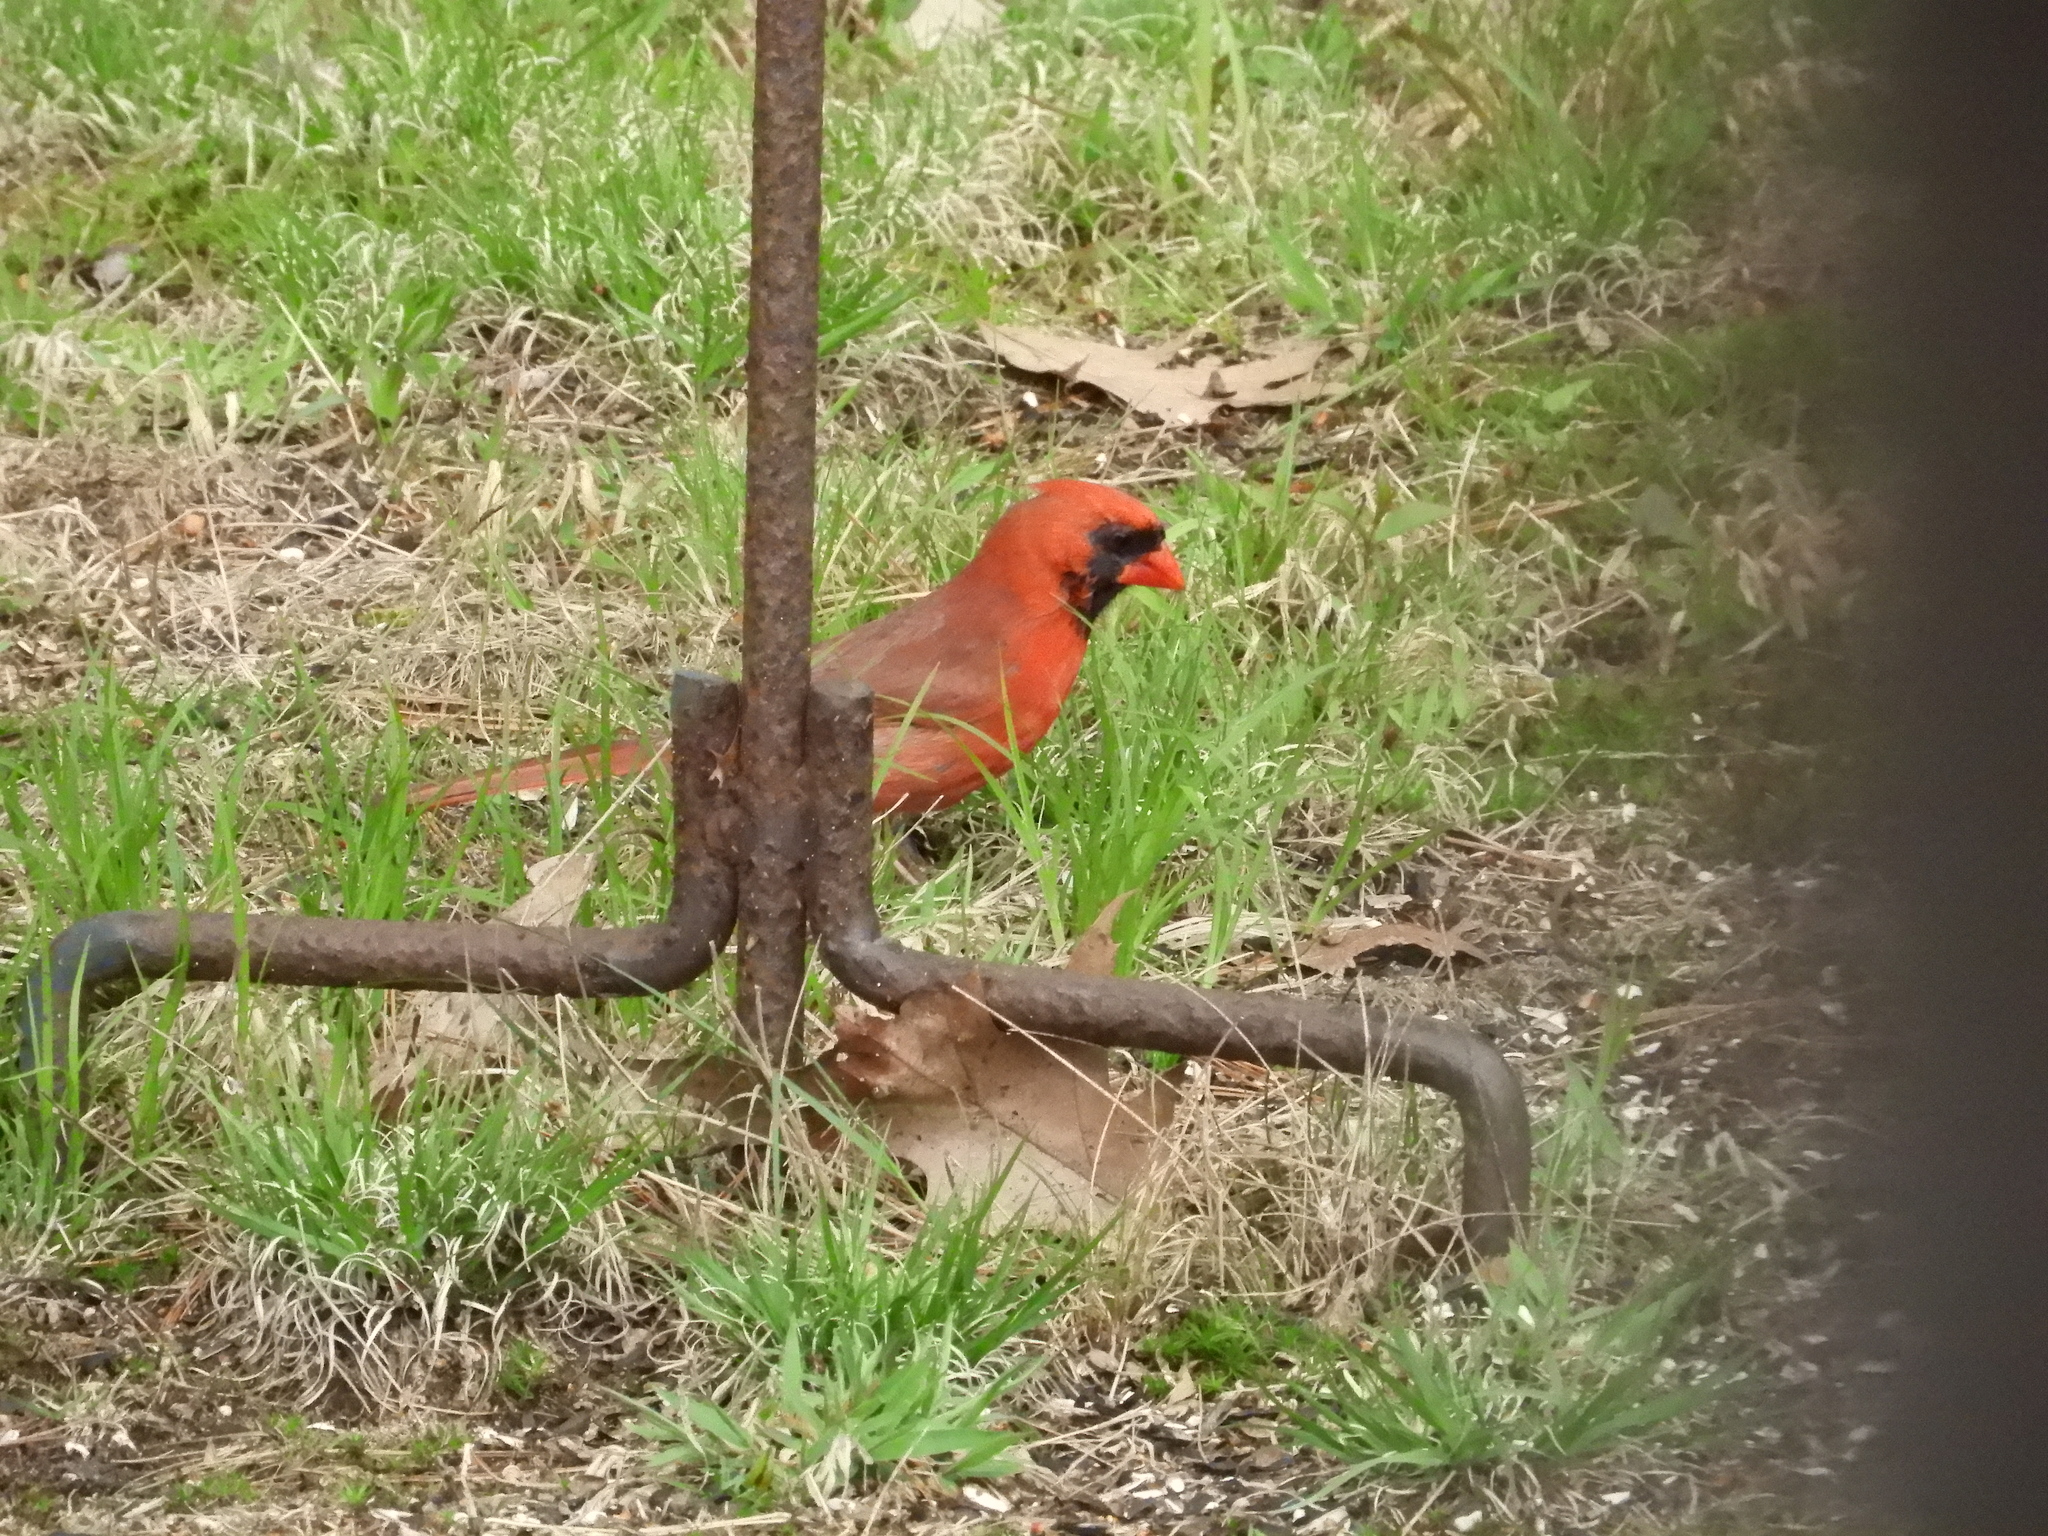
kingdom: Animalia
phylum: Chordata
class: Aves
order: Passeriformes
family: Cardinalidae
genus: Cardinalis
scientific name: Cardinalis cardinalis
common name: Northern cardinal
